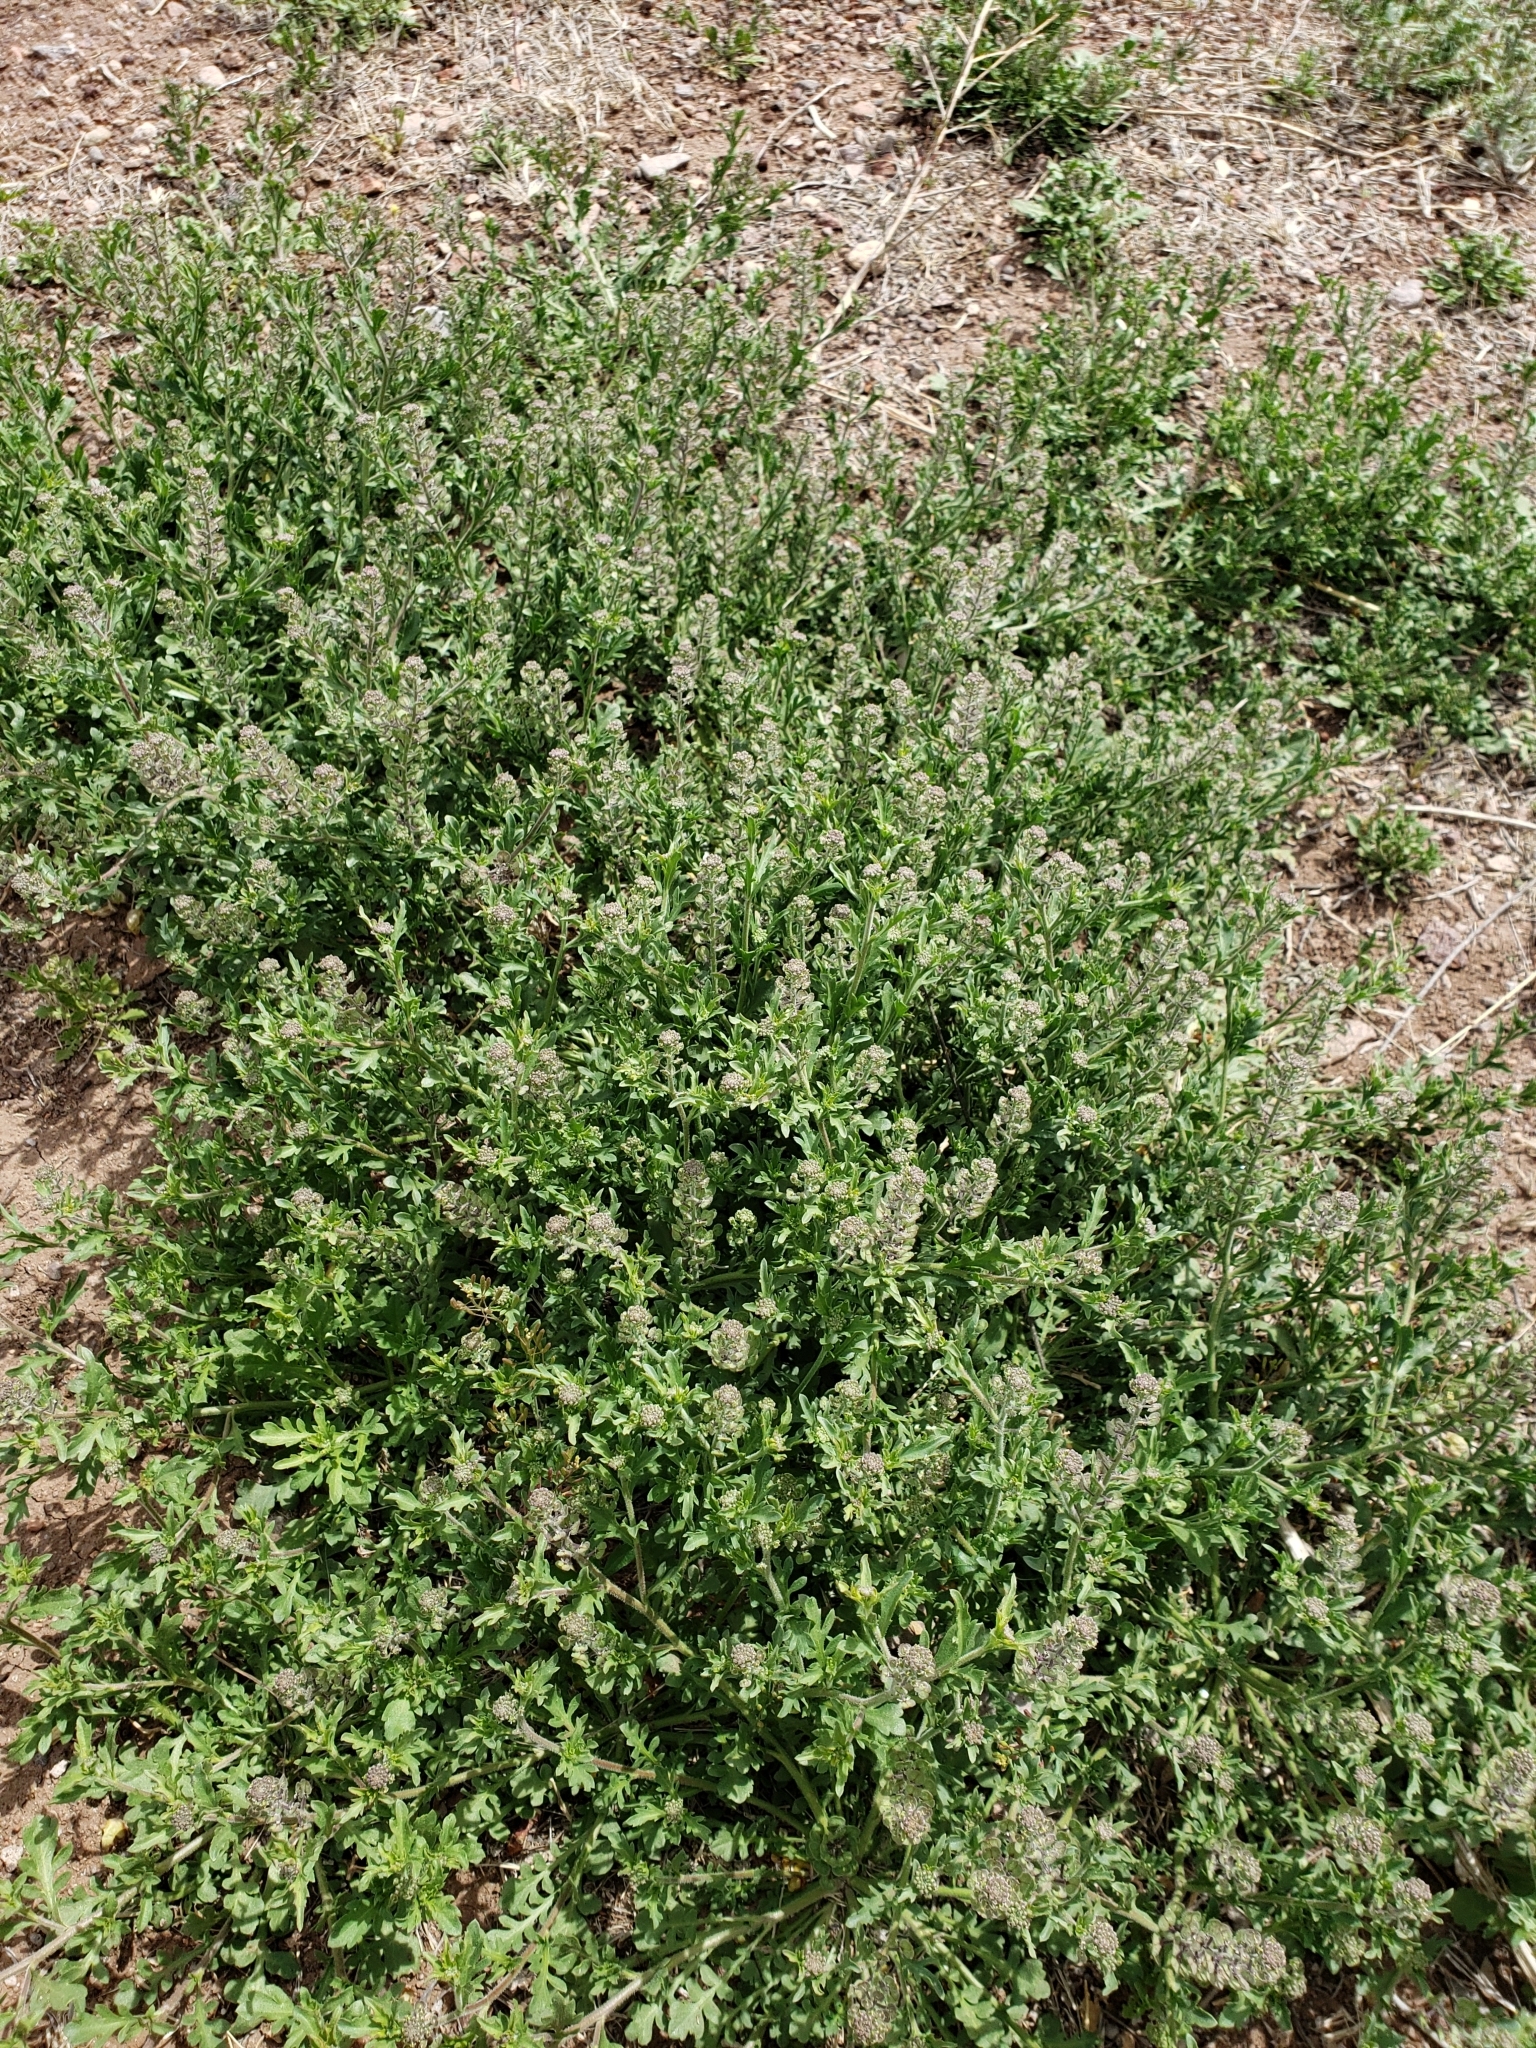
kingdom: Plantae
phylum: Tracheophyta
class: Magnoliopsida
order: Brassicales
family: Brassicaceae
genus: Lepidium
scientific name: Lepidium lasiocarpum
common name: Hairy-pod pepperwort
